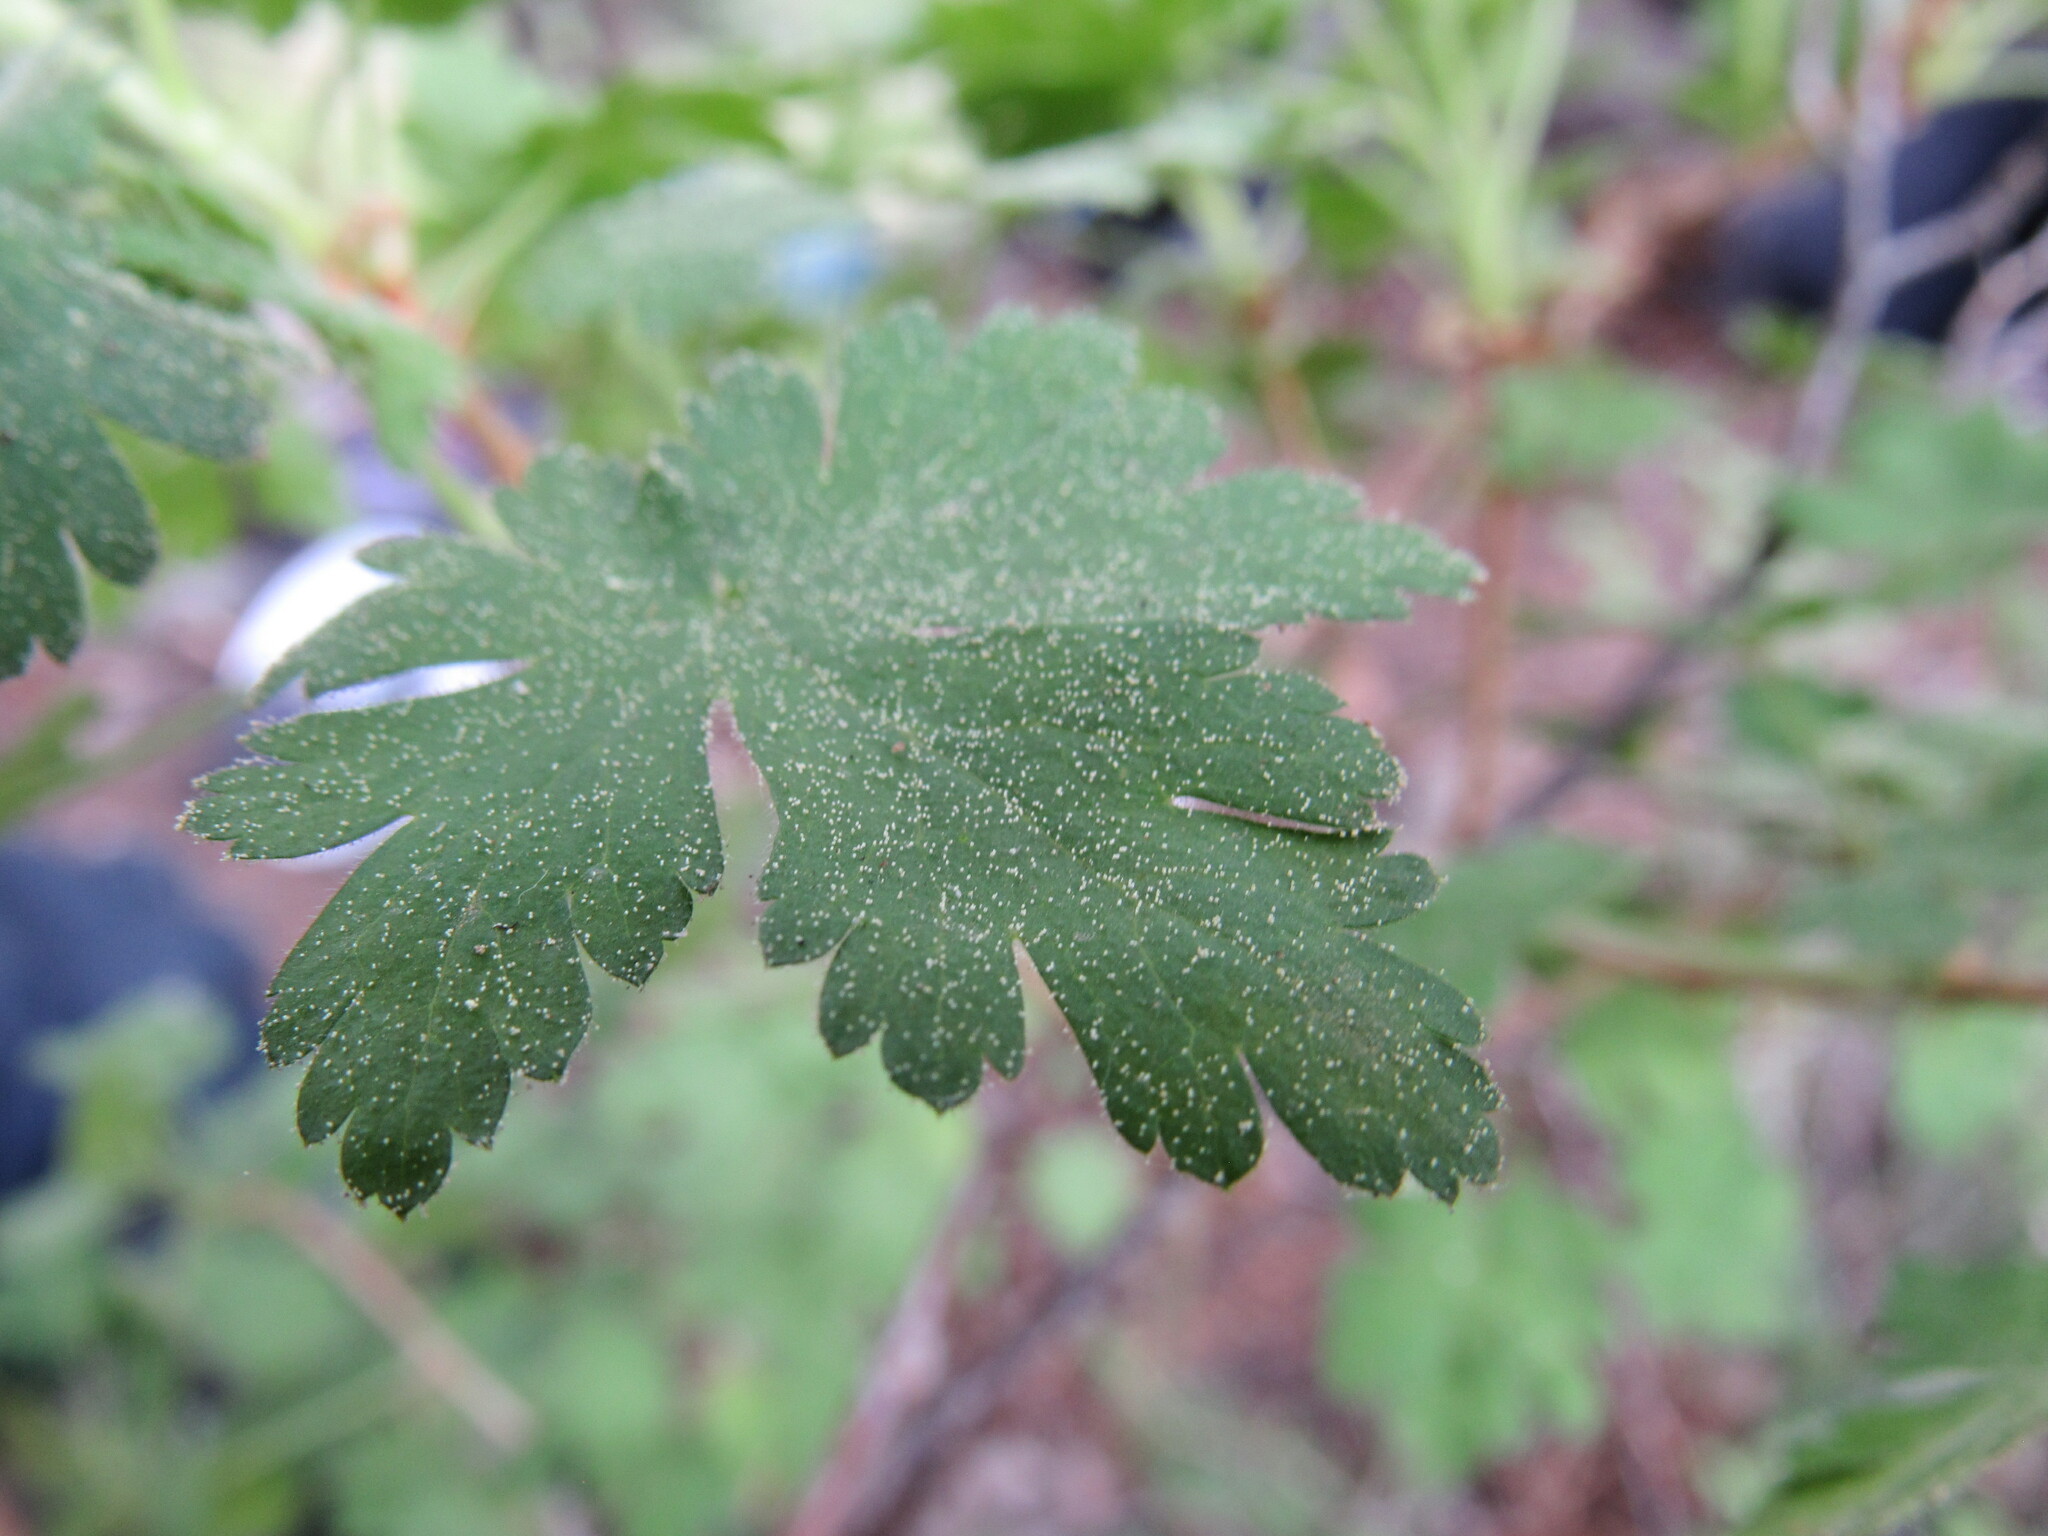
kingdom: Plantae
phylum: Tracheophyta
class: Magnoliopsida
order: Saxifragales
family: Grossulariaceae
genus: Ribes
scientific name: Ribes montigenum
